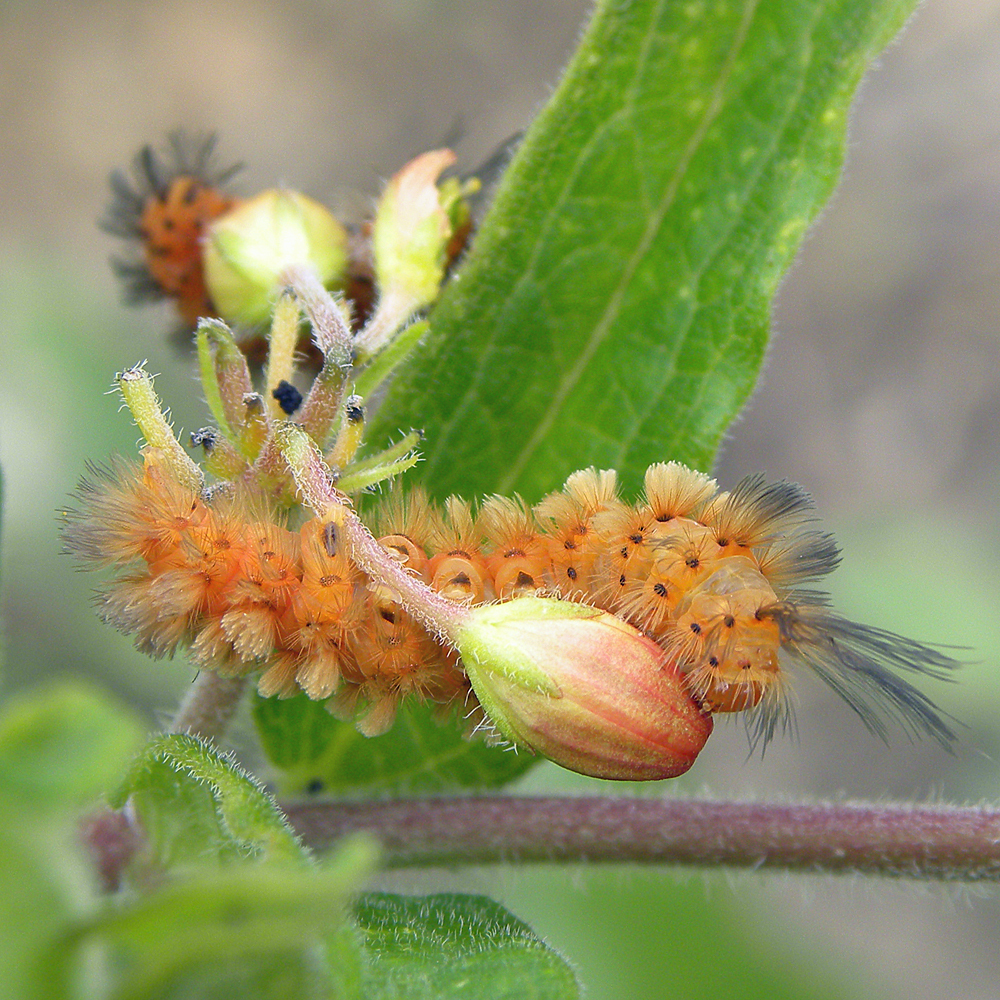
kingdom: Animalia
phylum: Arthropoda
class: Insecta
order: Lepidoptera
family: Erebidae
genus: Cycnia
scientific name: Cycnia collaris
